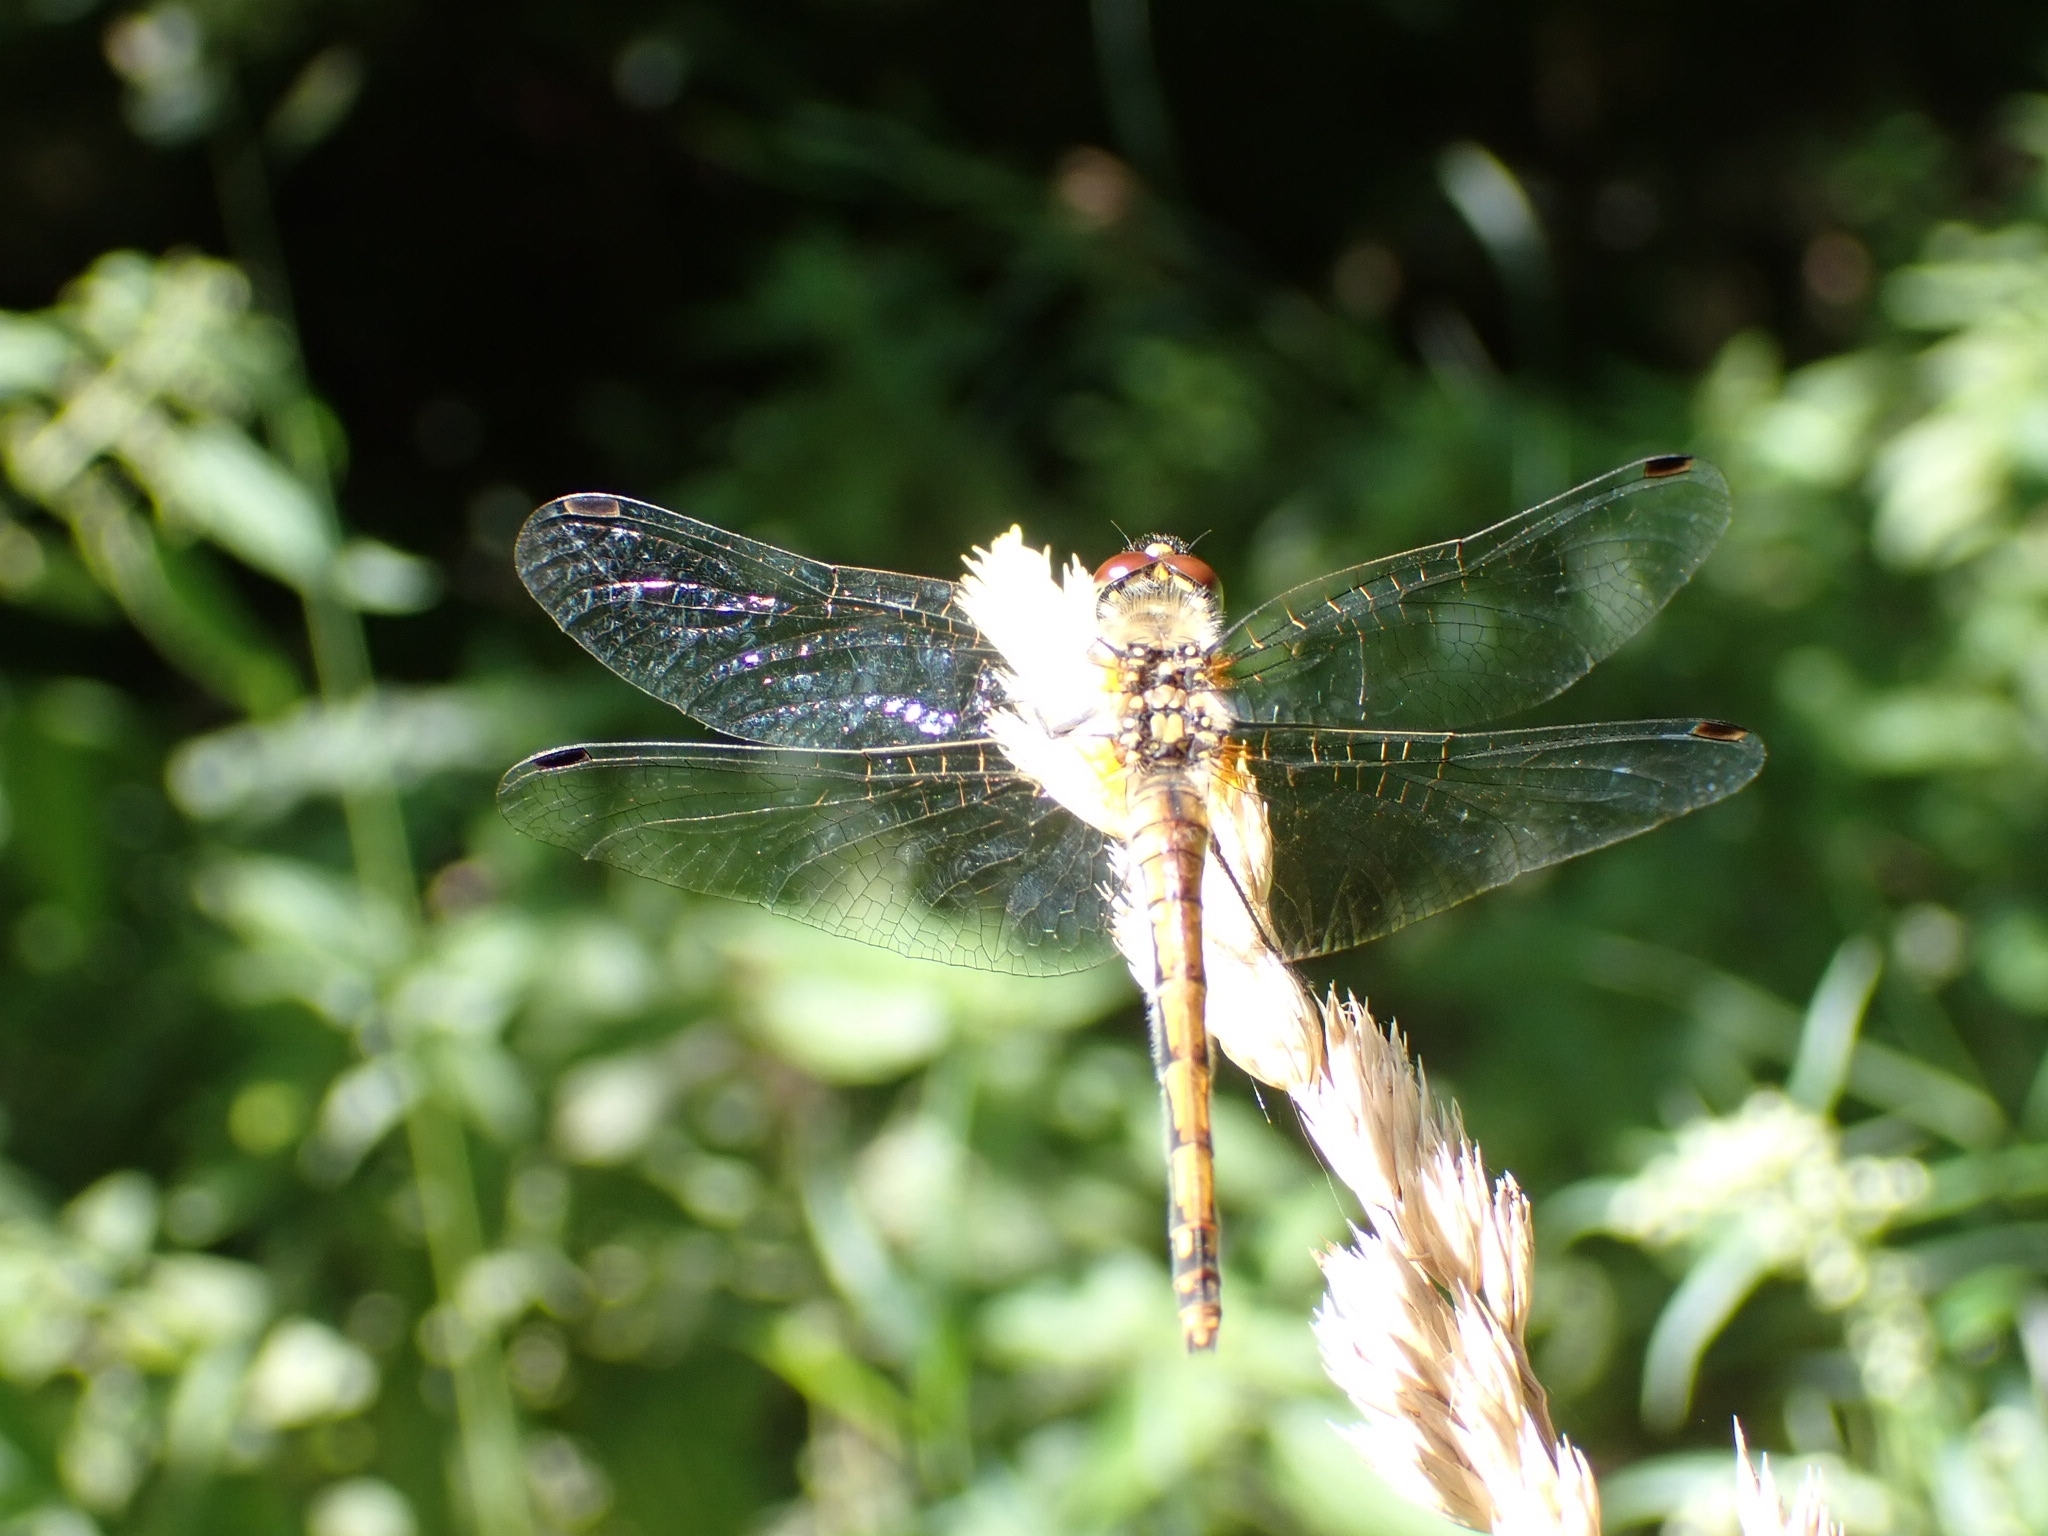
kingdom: Animalia
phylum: Arthropoda
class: Insecta
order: Odonata
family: Libellulidae
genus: Sympetrum
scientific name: Sympetrum danae
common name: Black darter
